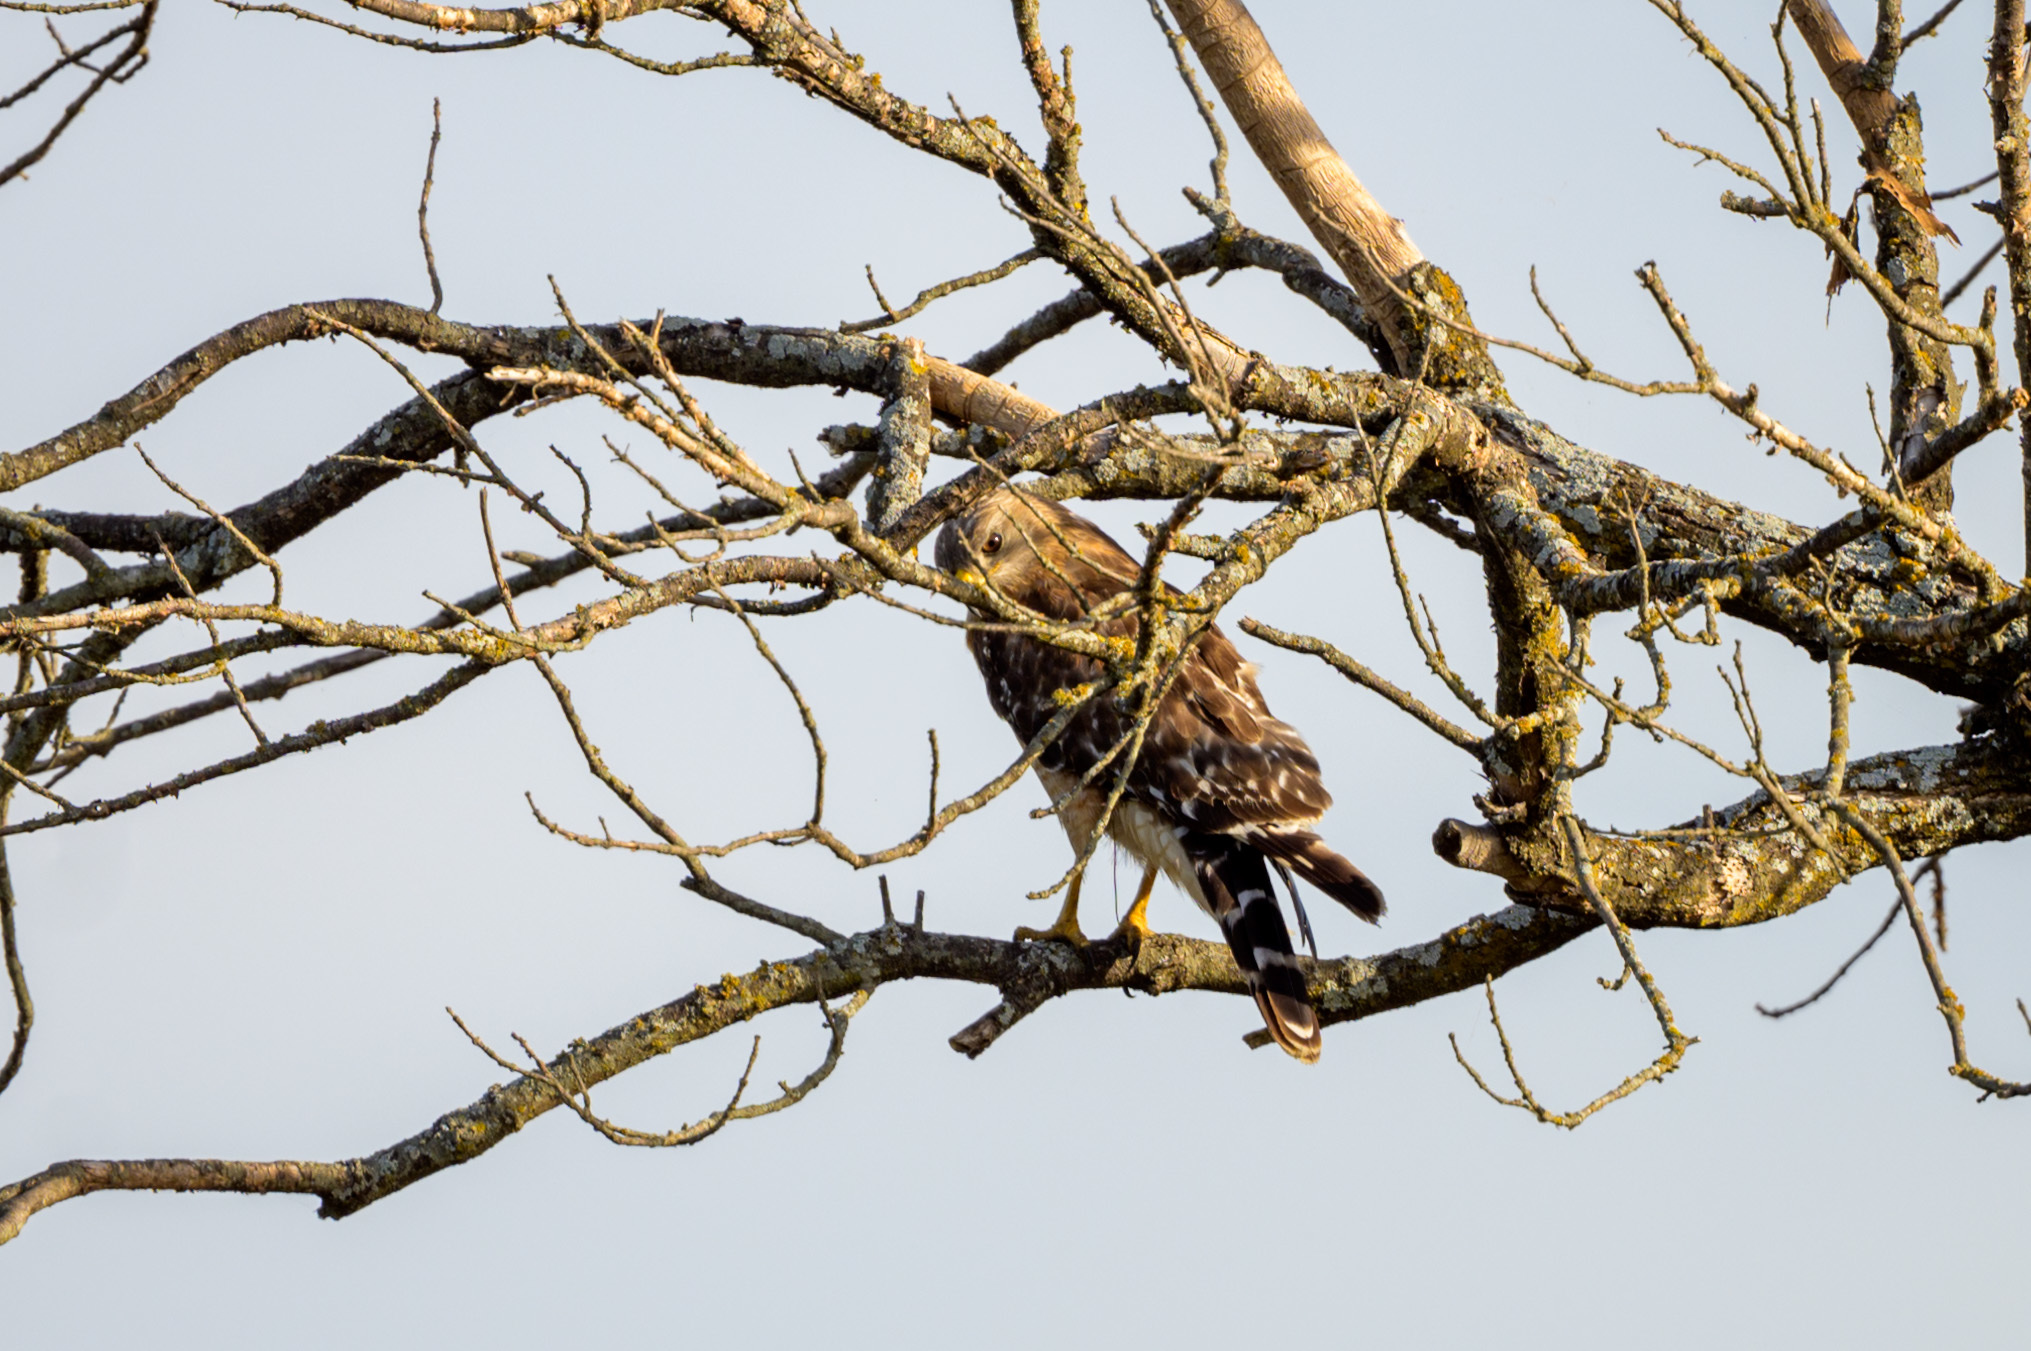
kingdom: Animalia
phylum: Chordata
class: Aves
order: Accipitriformes
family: Accipitridae
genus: Buteo
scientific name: Buteo lineatus
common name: Red-shouldered hawk
